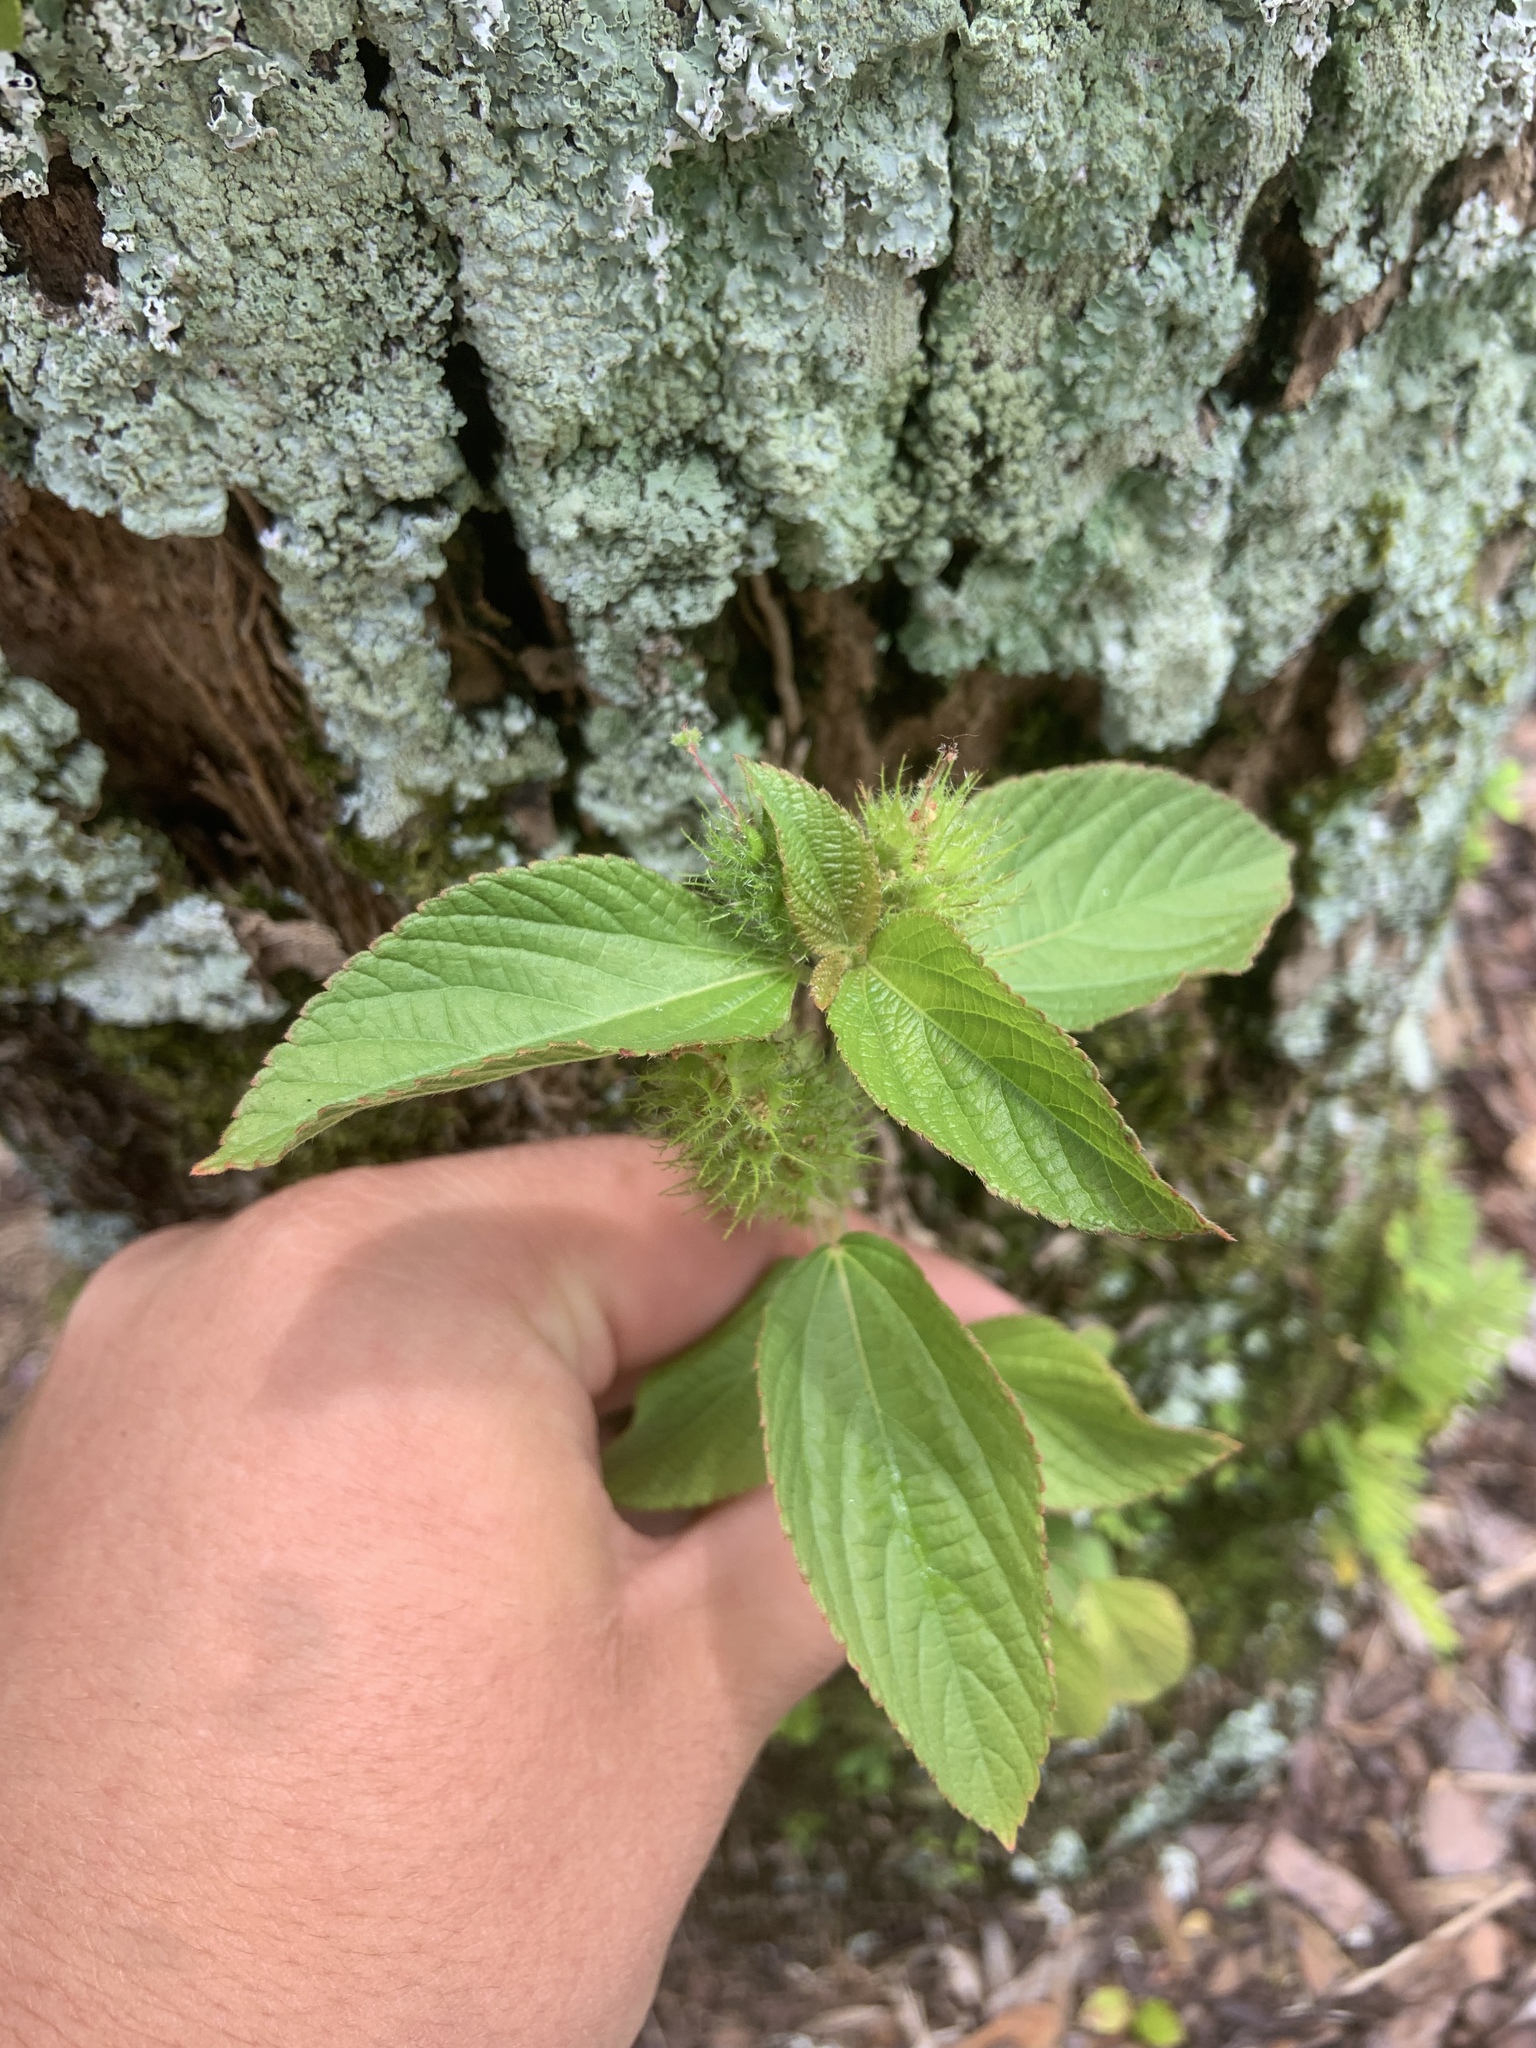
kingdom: Plantae
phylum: Tracheophyta
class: Magnoliopsida
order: Malpighiales
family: Euphorbiaceae
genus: Acalypha
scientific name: Acalypha arvensis
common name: Field copperleaf
